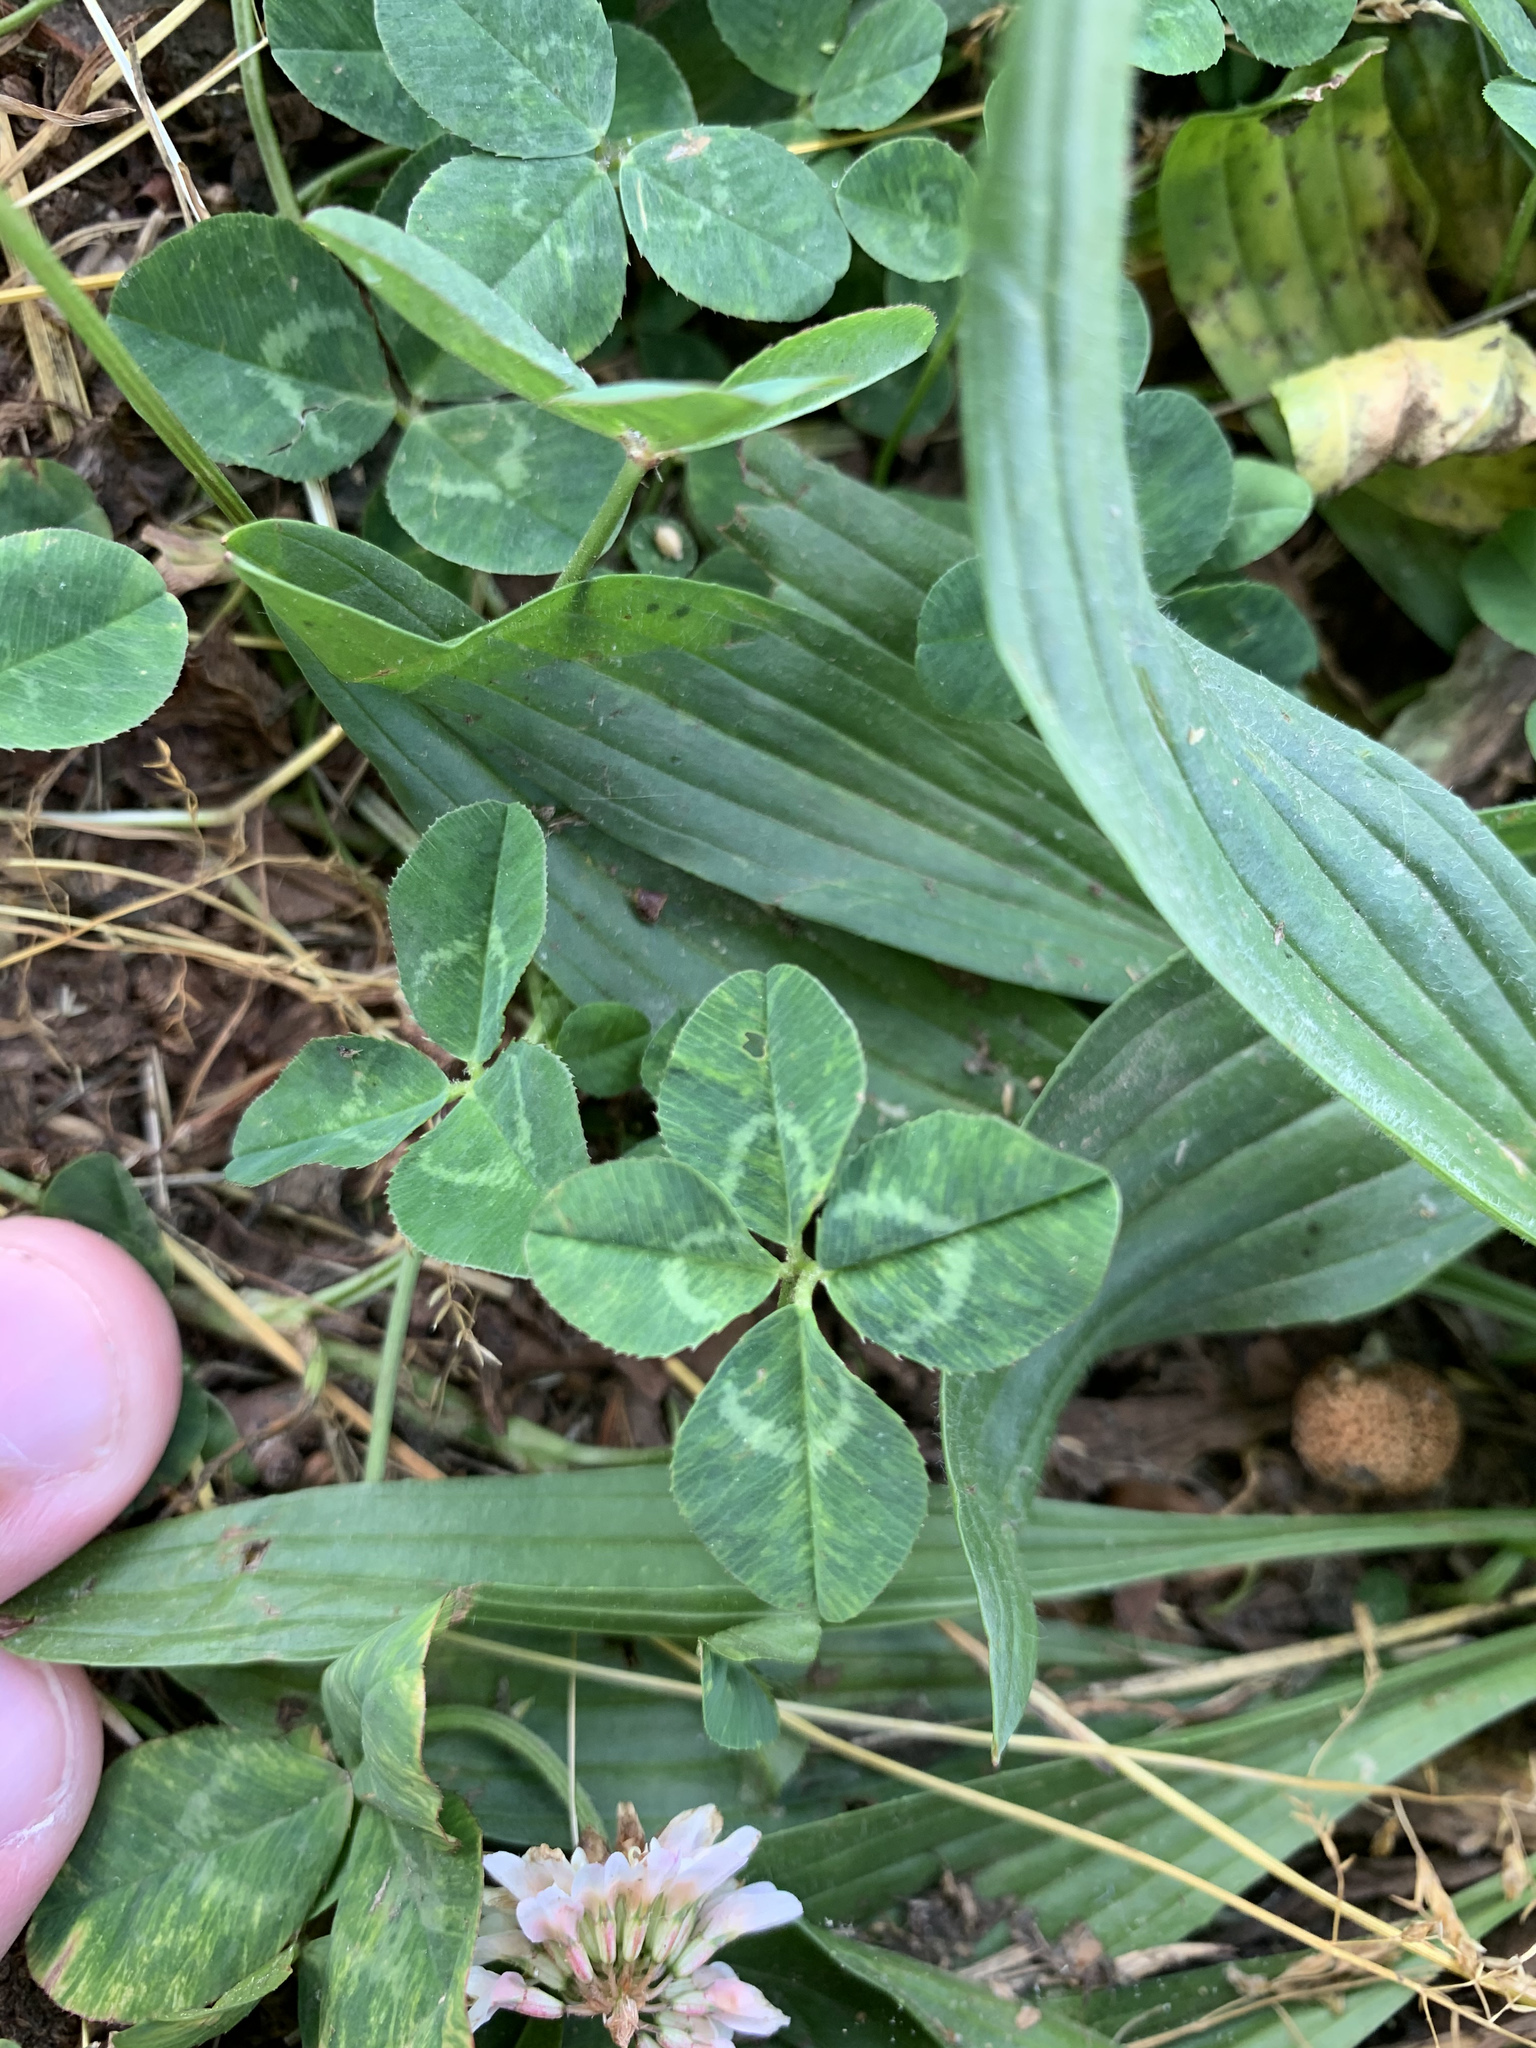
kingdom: Plantae
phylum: Tracheophyta
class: Magnoliopsida
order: Fabales
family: Fabaceae
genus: Trifolium
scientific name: Trifolium repens
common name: White clover
